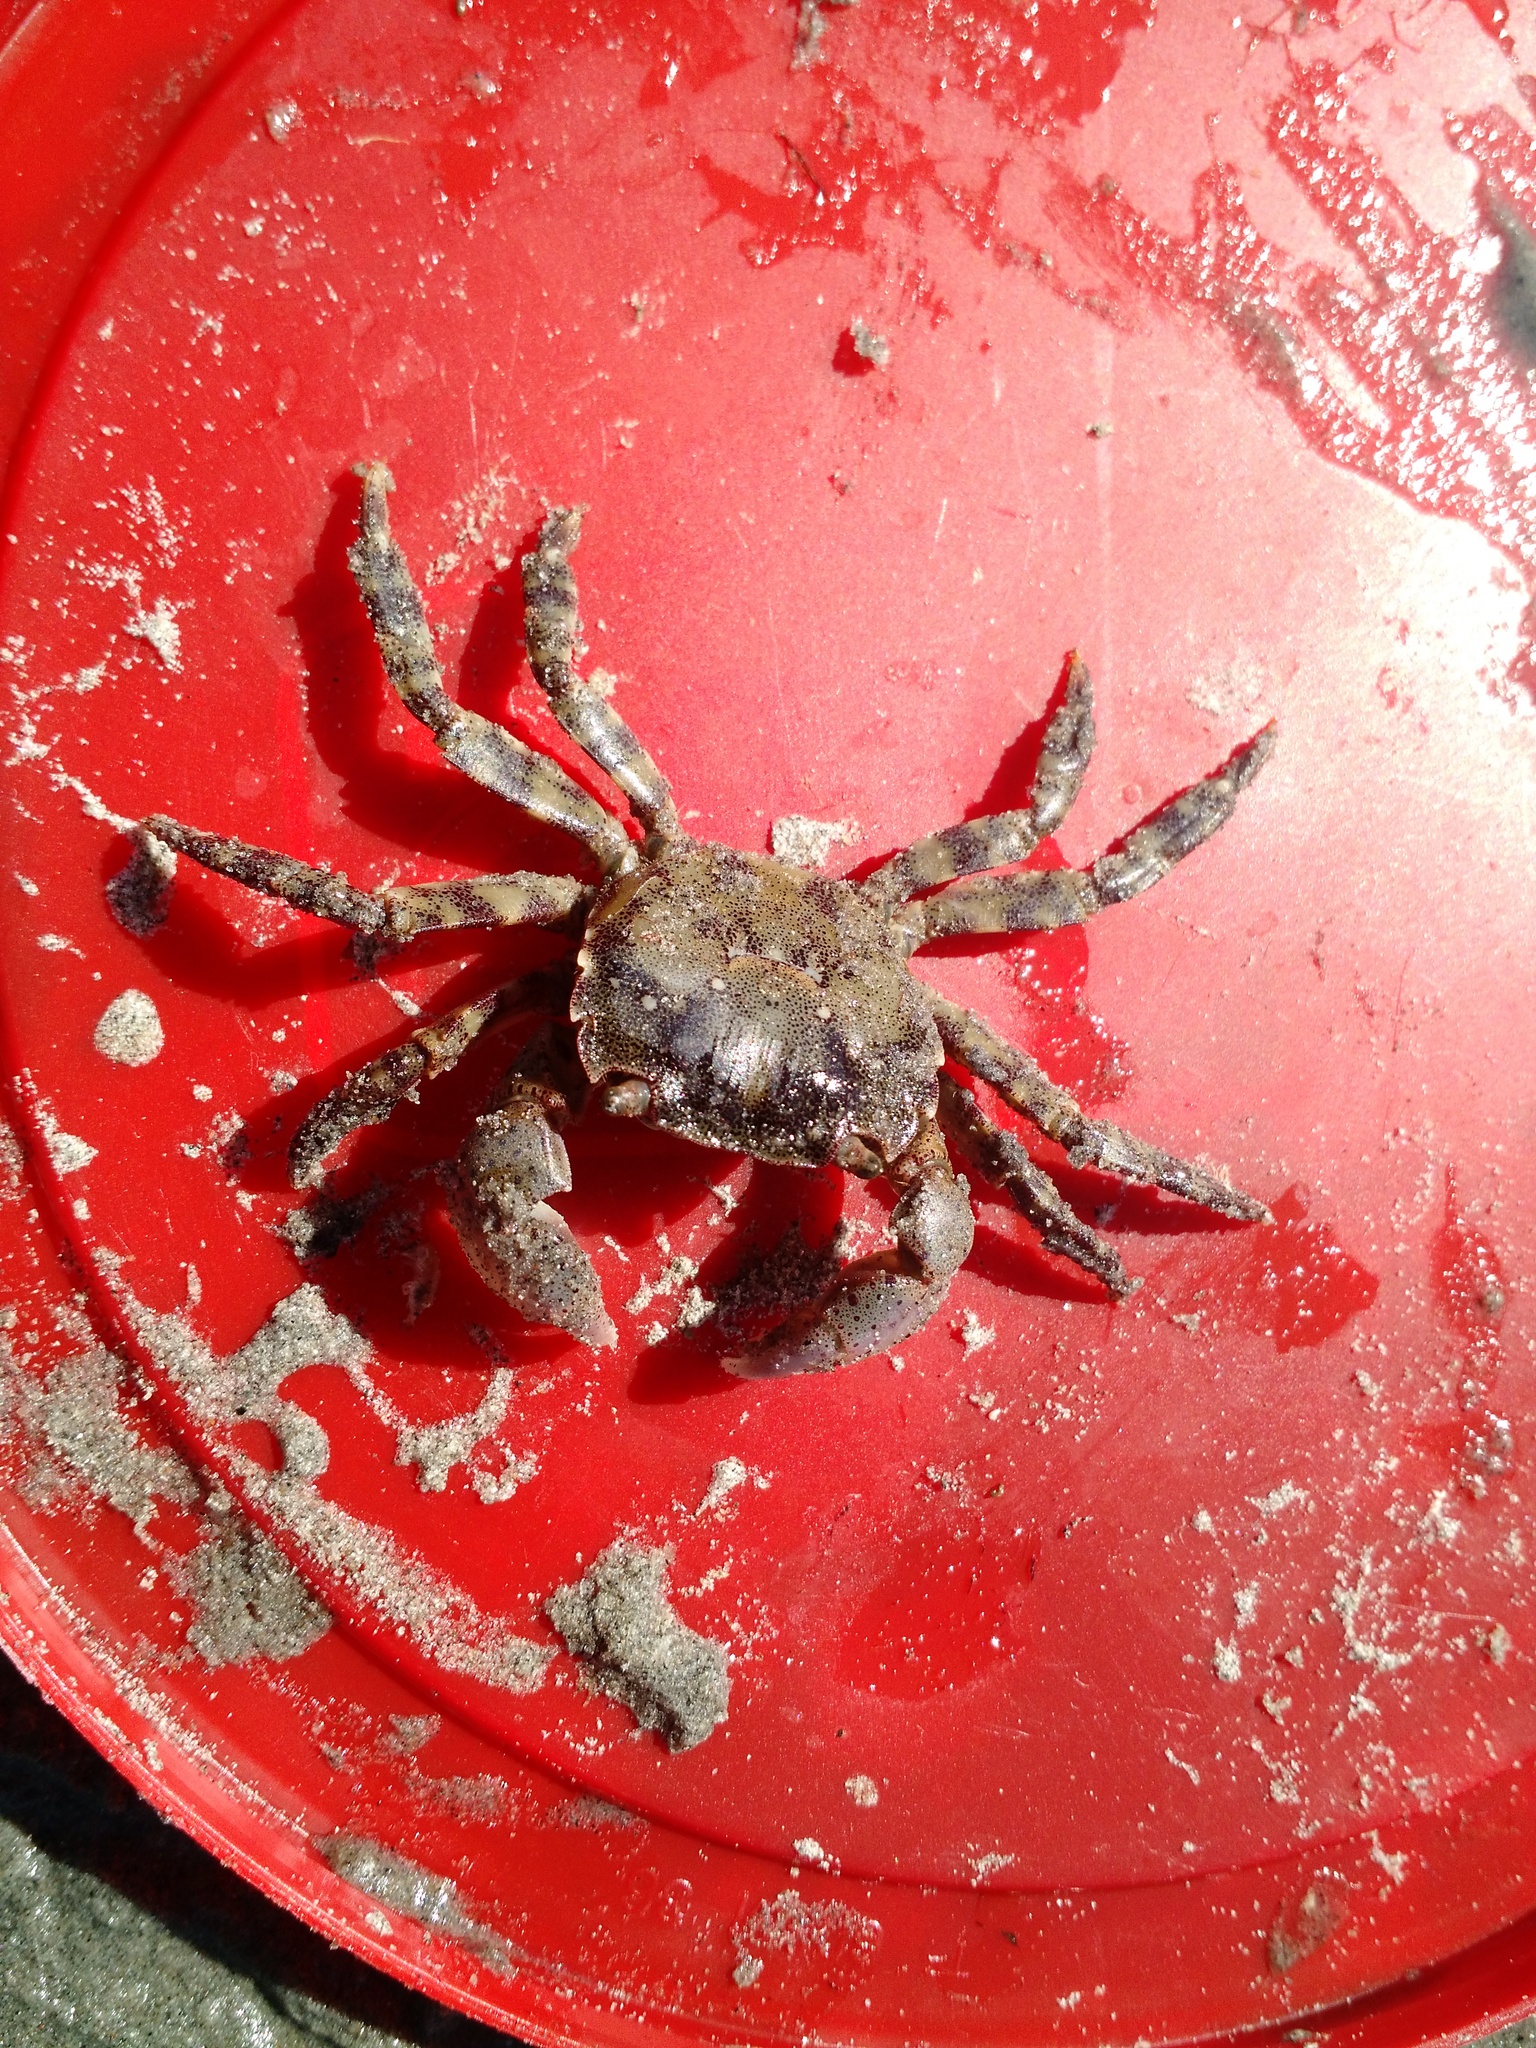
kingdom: Animalia
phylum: Arthropoda
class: Malacostraca
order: Decapoda
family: Varunidae
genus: Hemigrapsus
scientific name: Hemigrapsus sanguineus
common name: Asian shore crab
